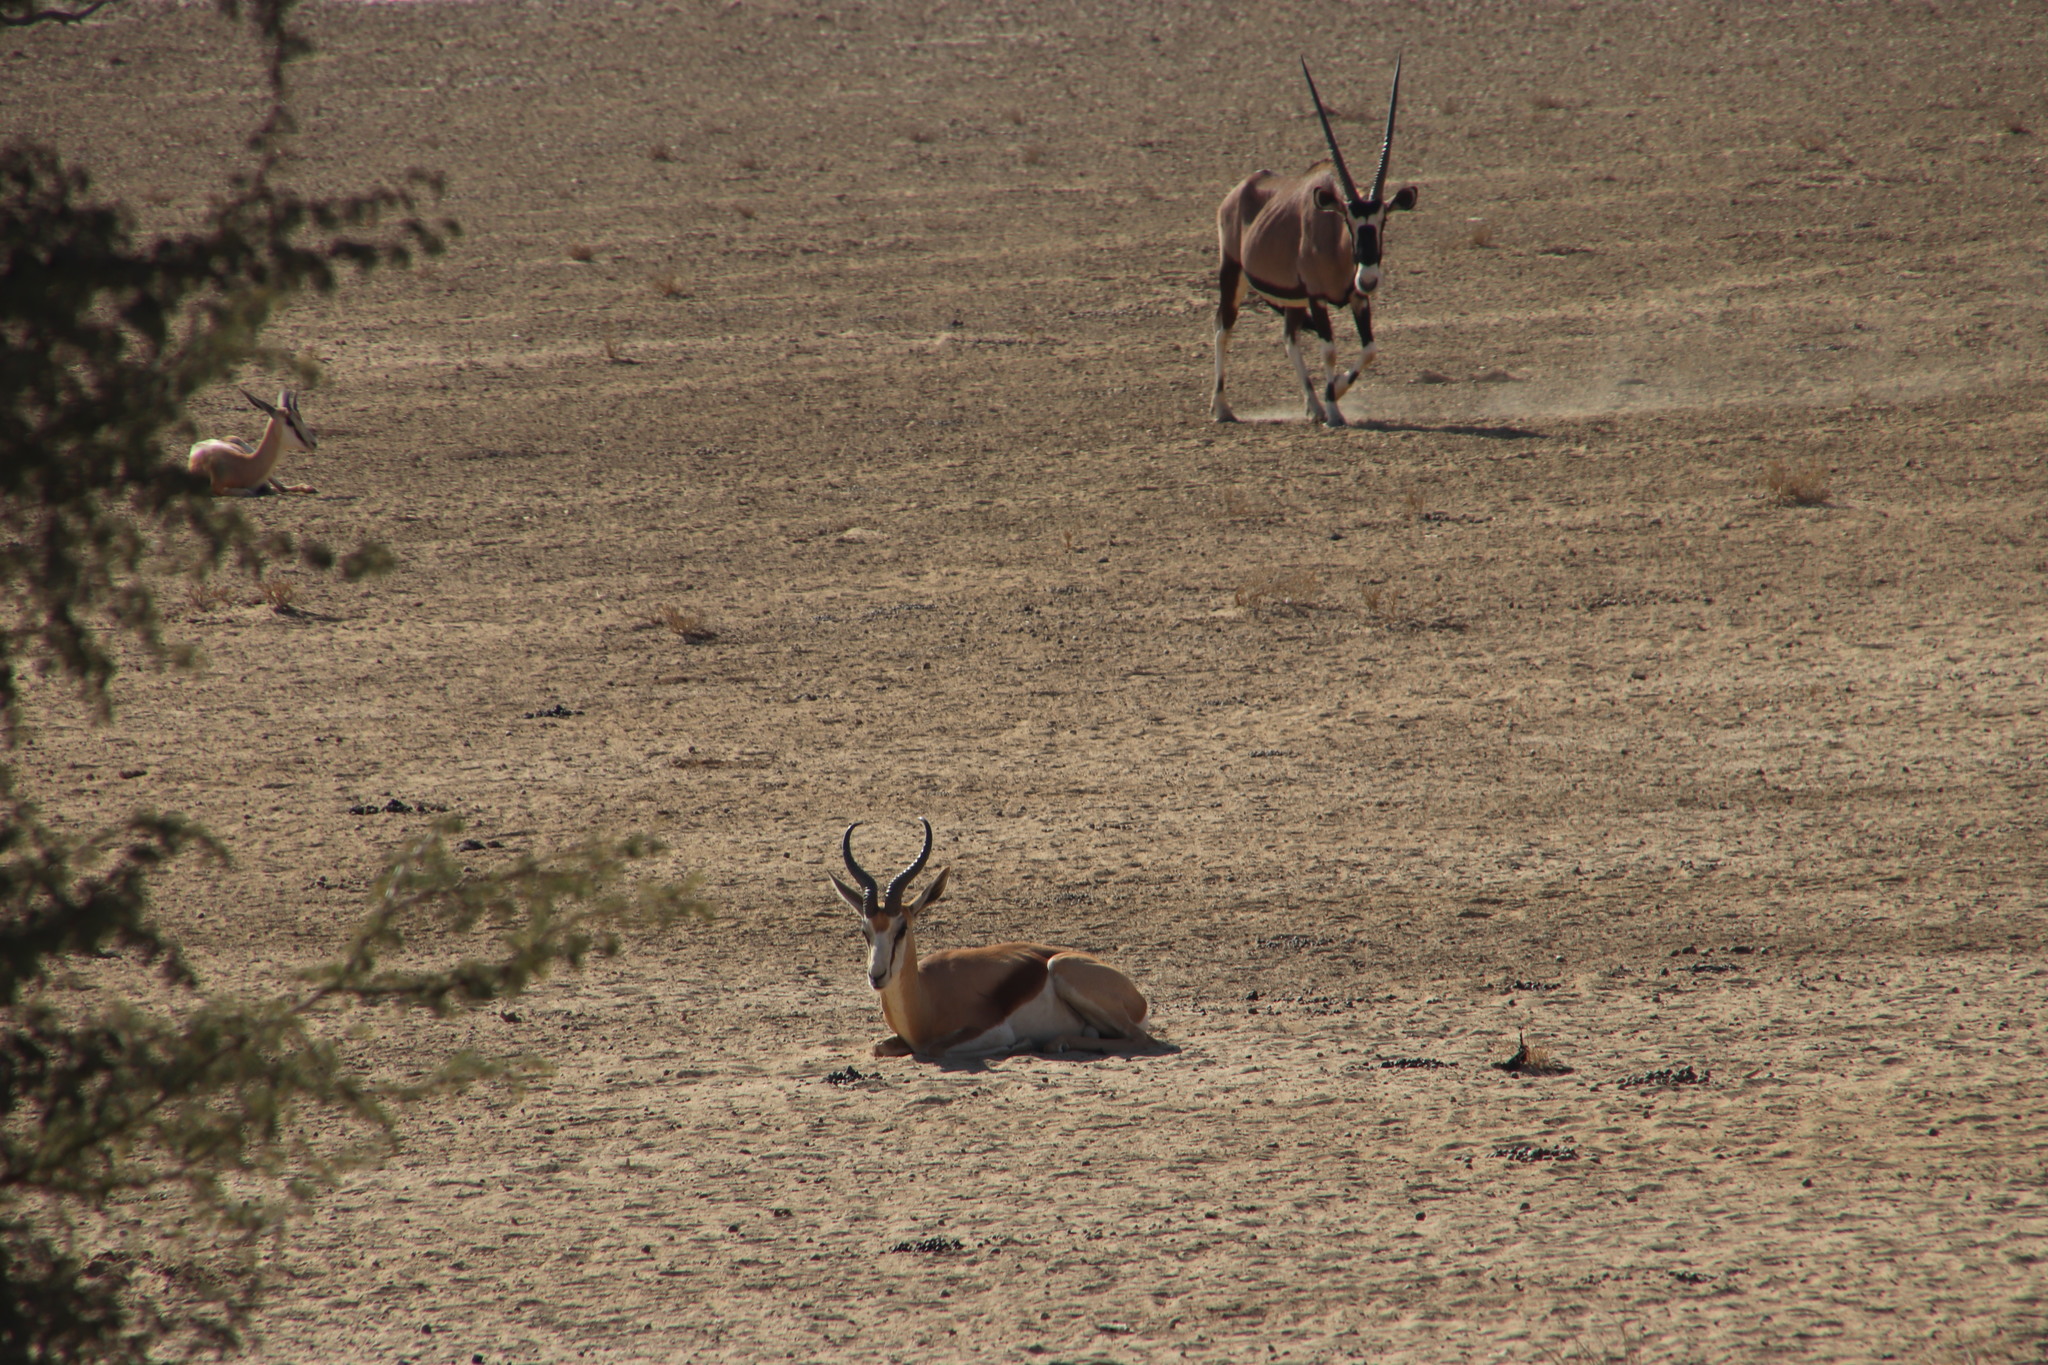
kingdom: Animalia
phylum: Chordata
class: Mammalia
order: Artiodactyla
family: Bovidae
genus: Antidorcas
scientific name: Antidorcas marsupialis
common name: Springbok
